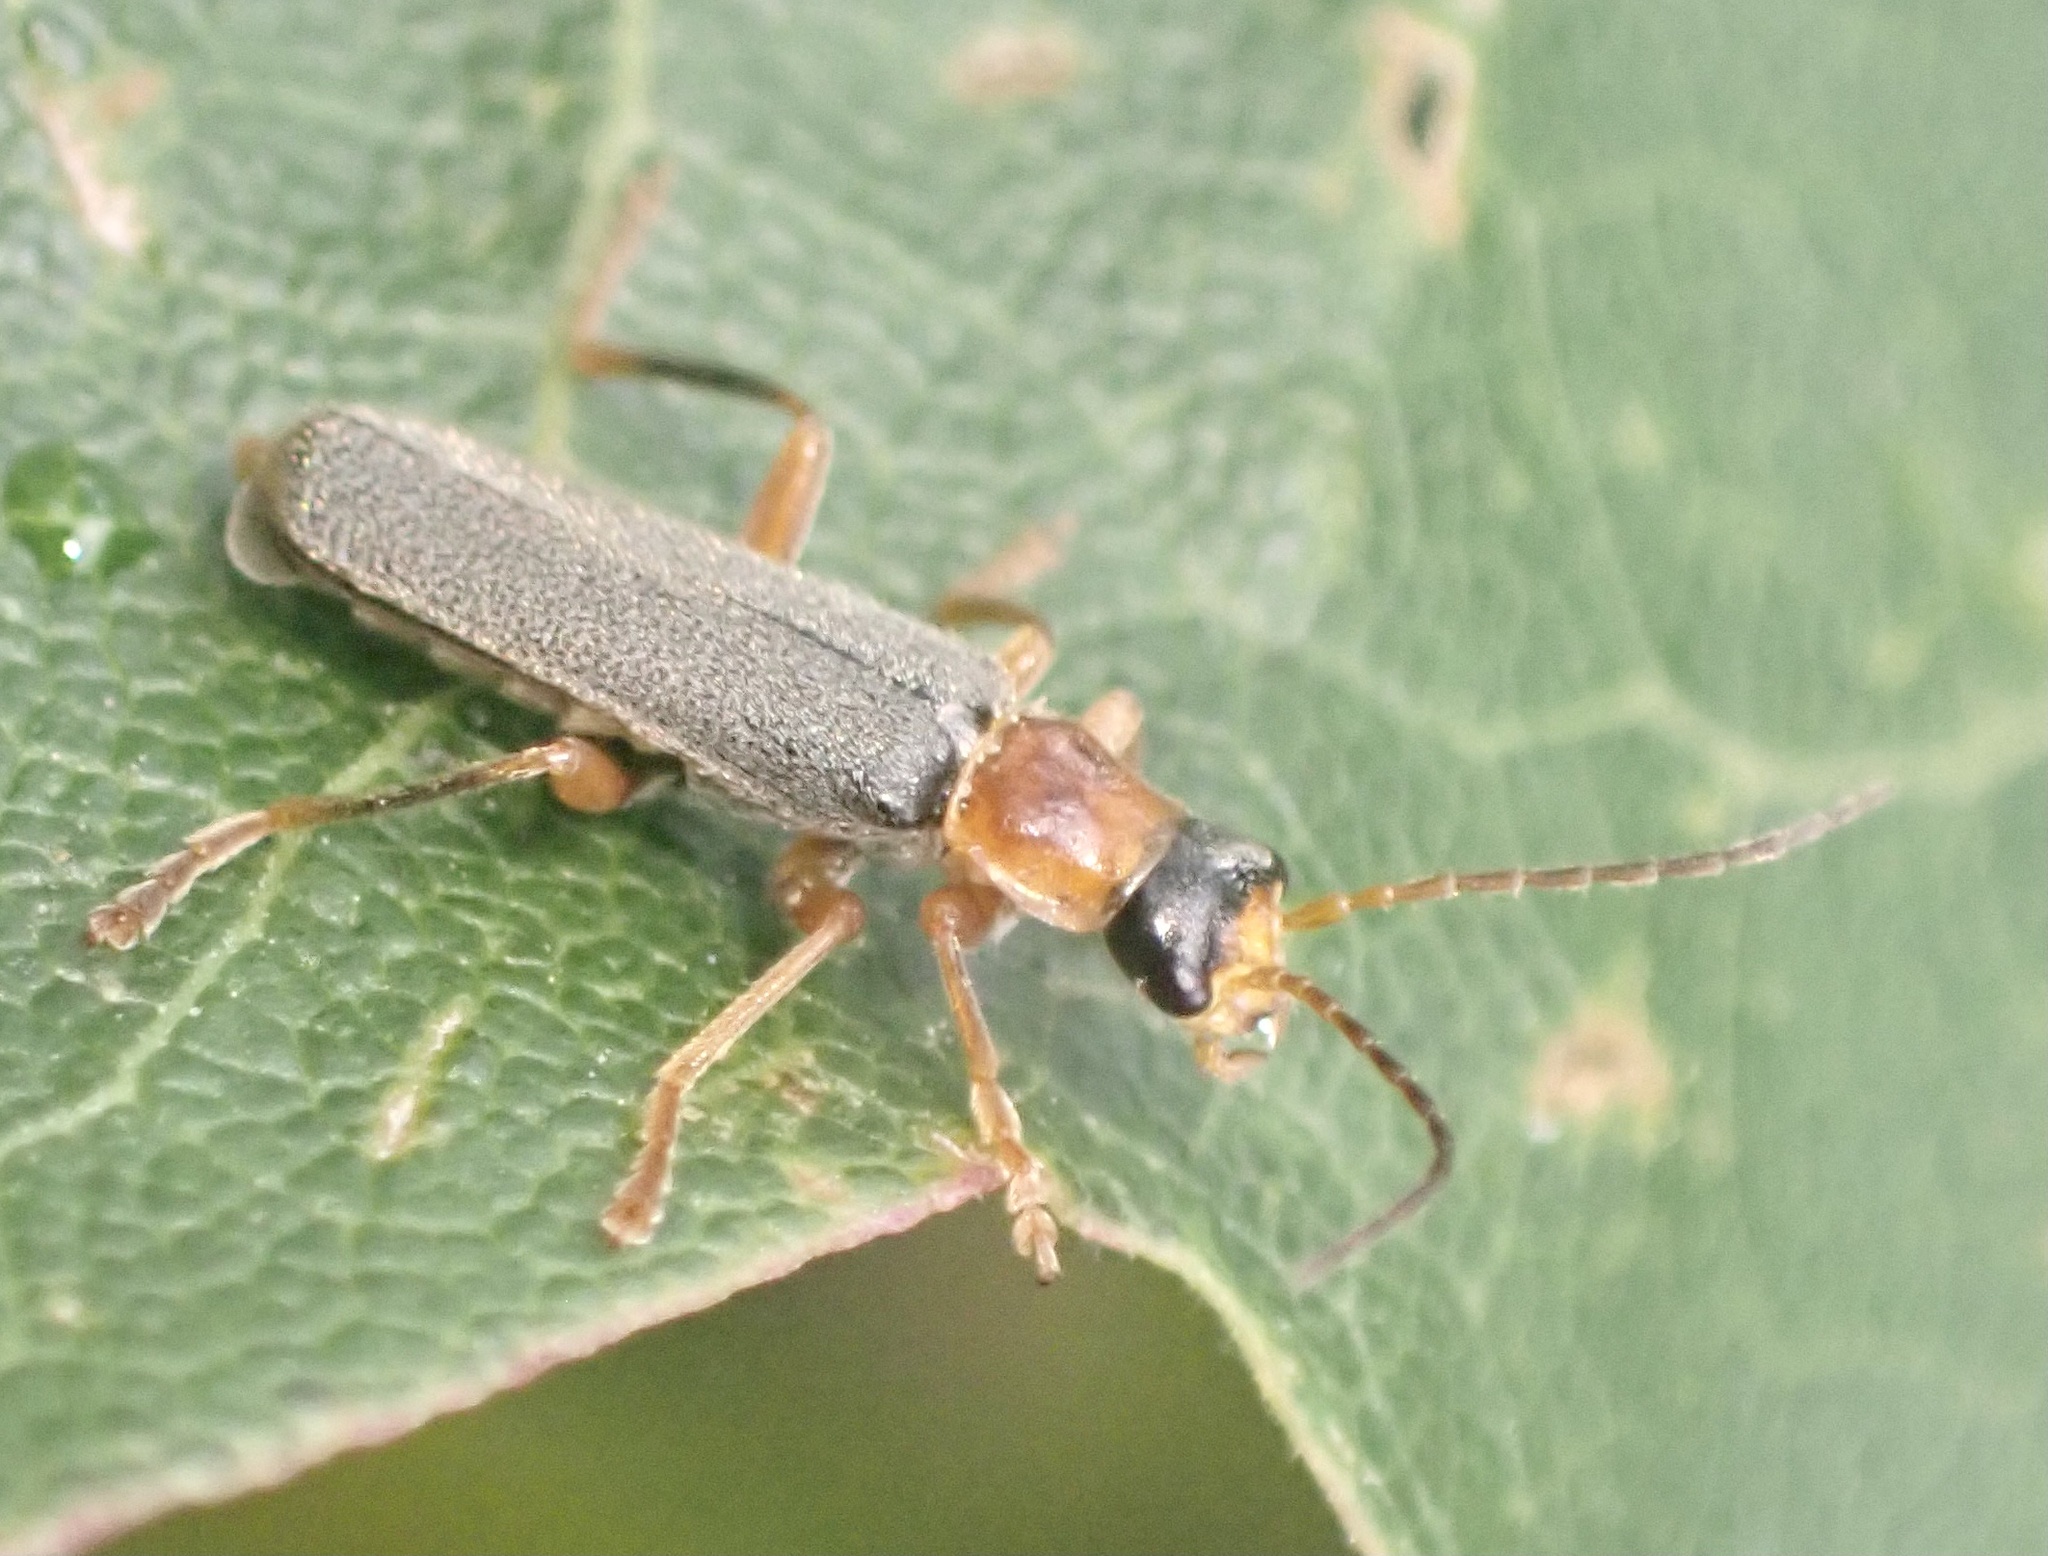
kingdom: Animalia
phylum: Arthropoda
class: Insecta
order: Coleoptera
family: Cantharidae
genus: Cantharis
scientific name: Cantharis lateralis
